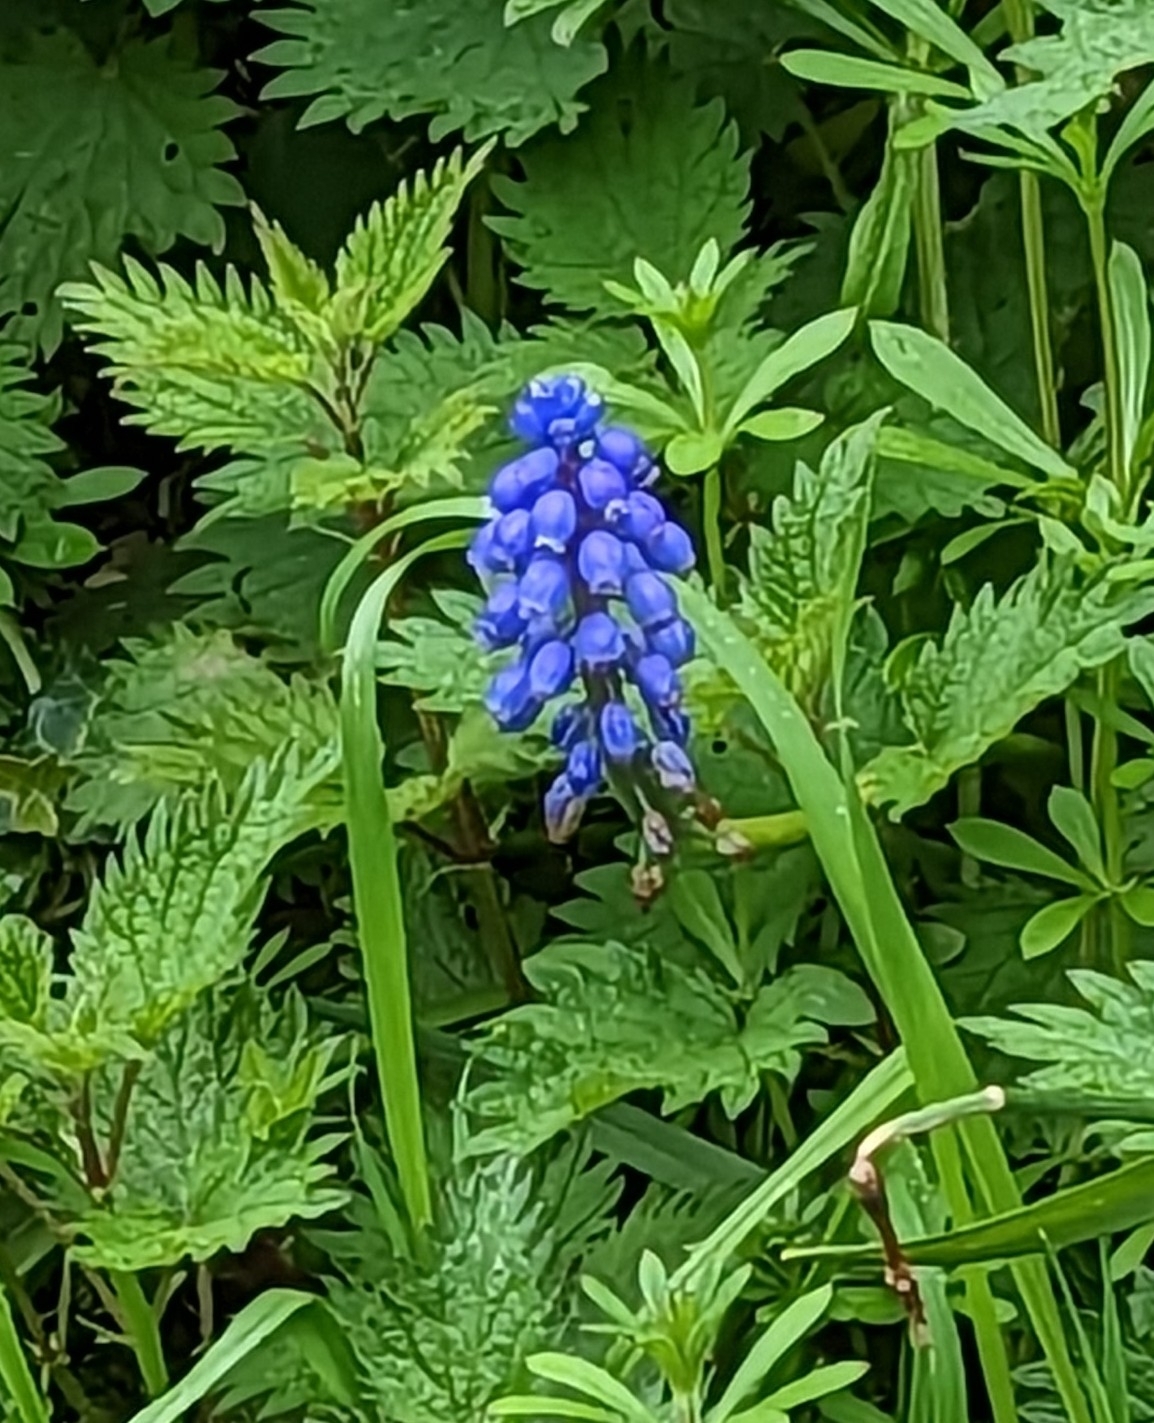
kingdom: Plantae
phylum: Tracheophyta
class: Liliopsida
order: Asparagales
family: Asparagaceae
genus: Muscari
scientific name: Muscari armeniacum
